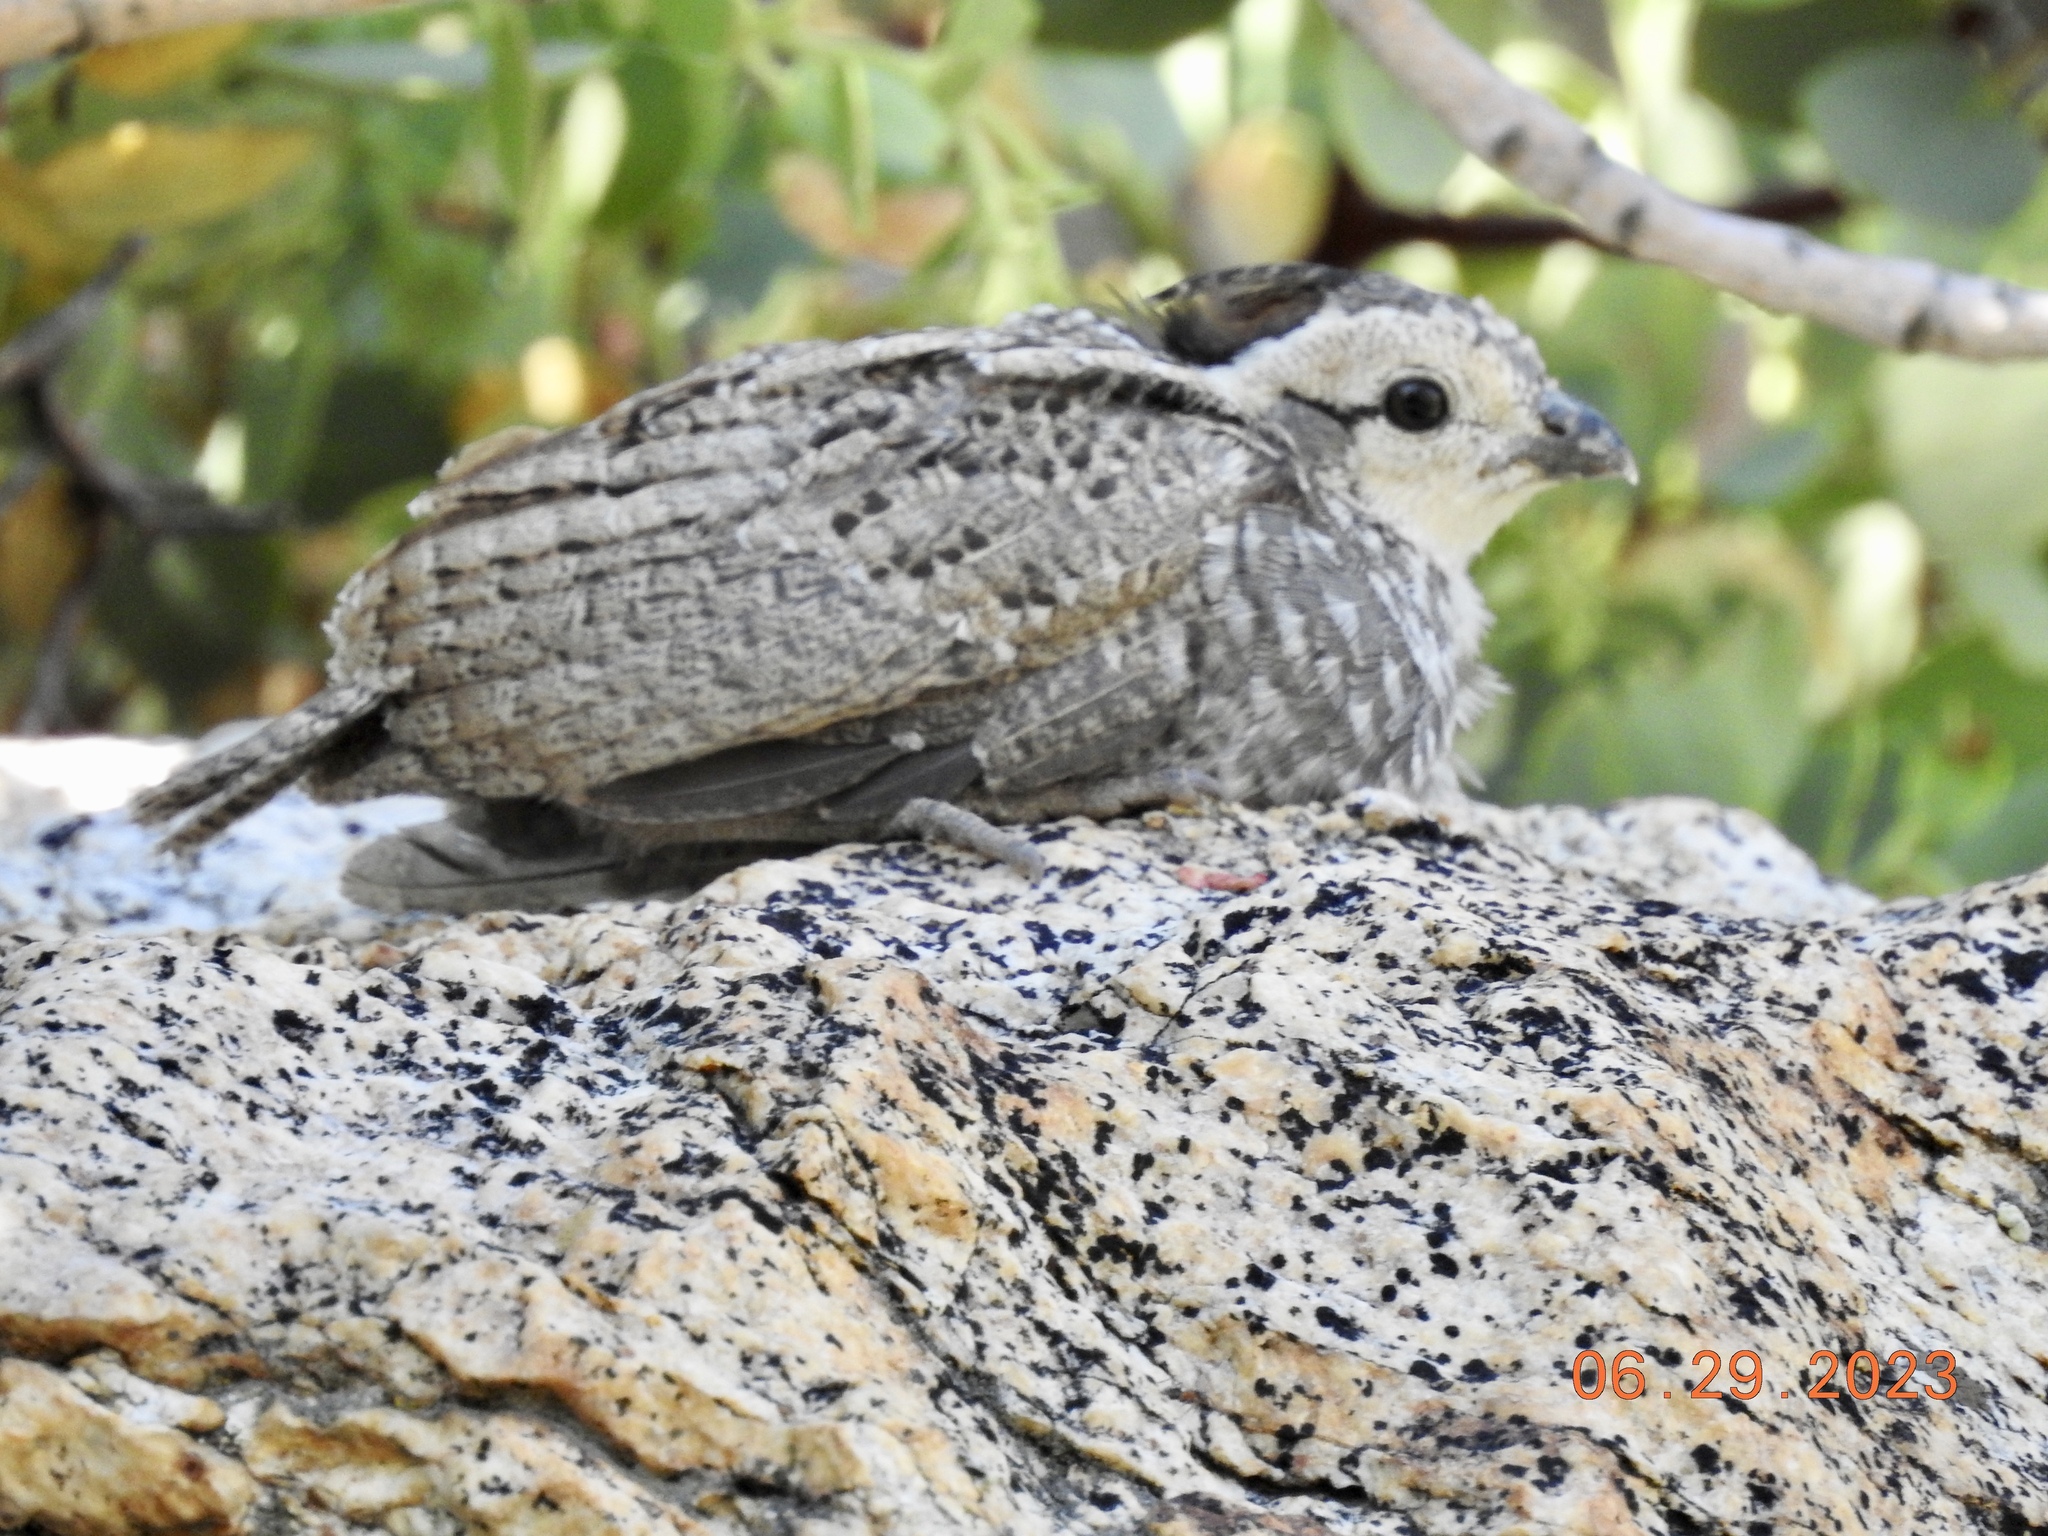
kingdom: Animalia
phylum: Chordata
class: Aves
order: Galliformes
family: Odontophoridae
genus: Oreortyx
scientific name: Oreortyx pictus
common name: Mountain quail
